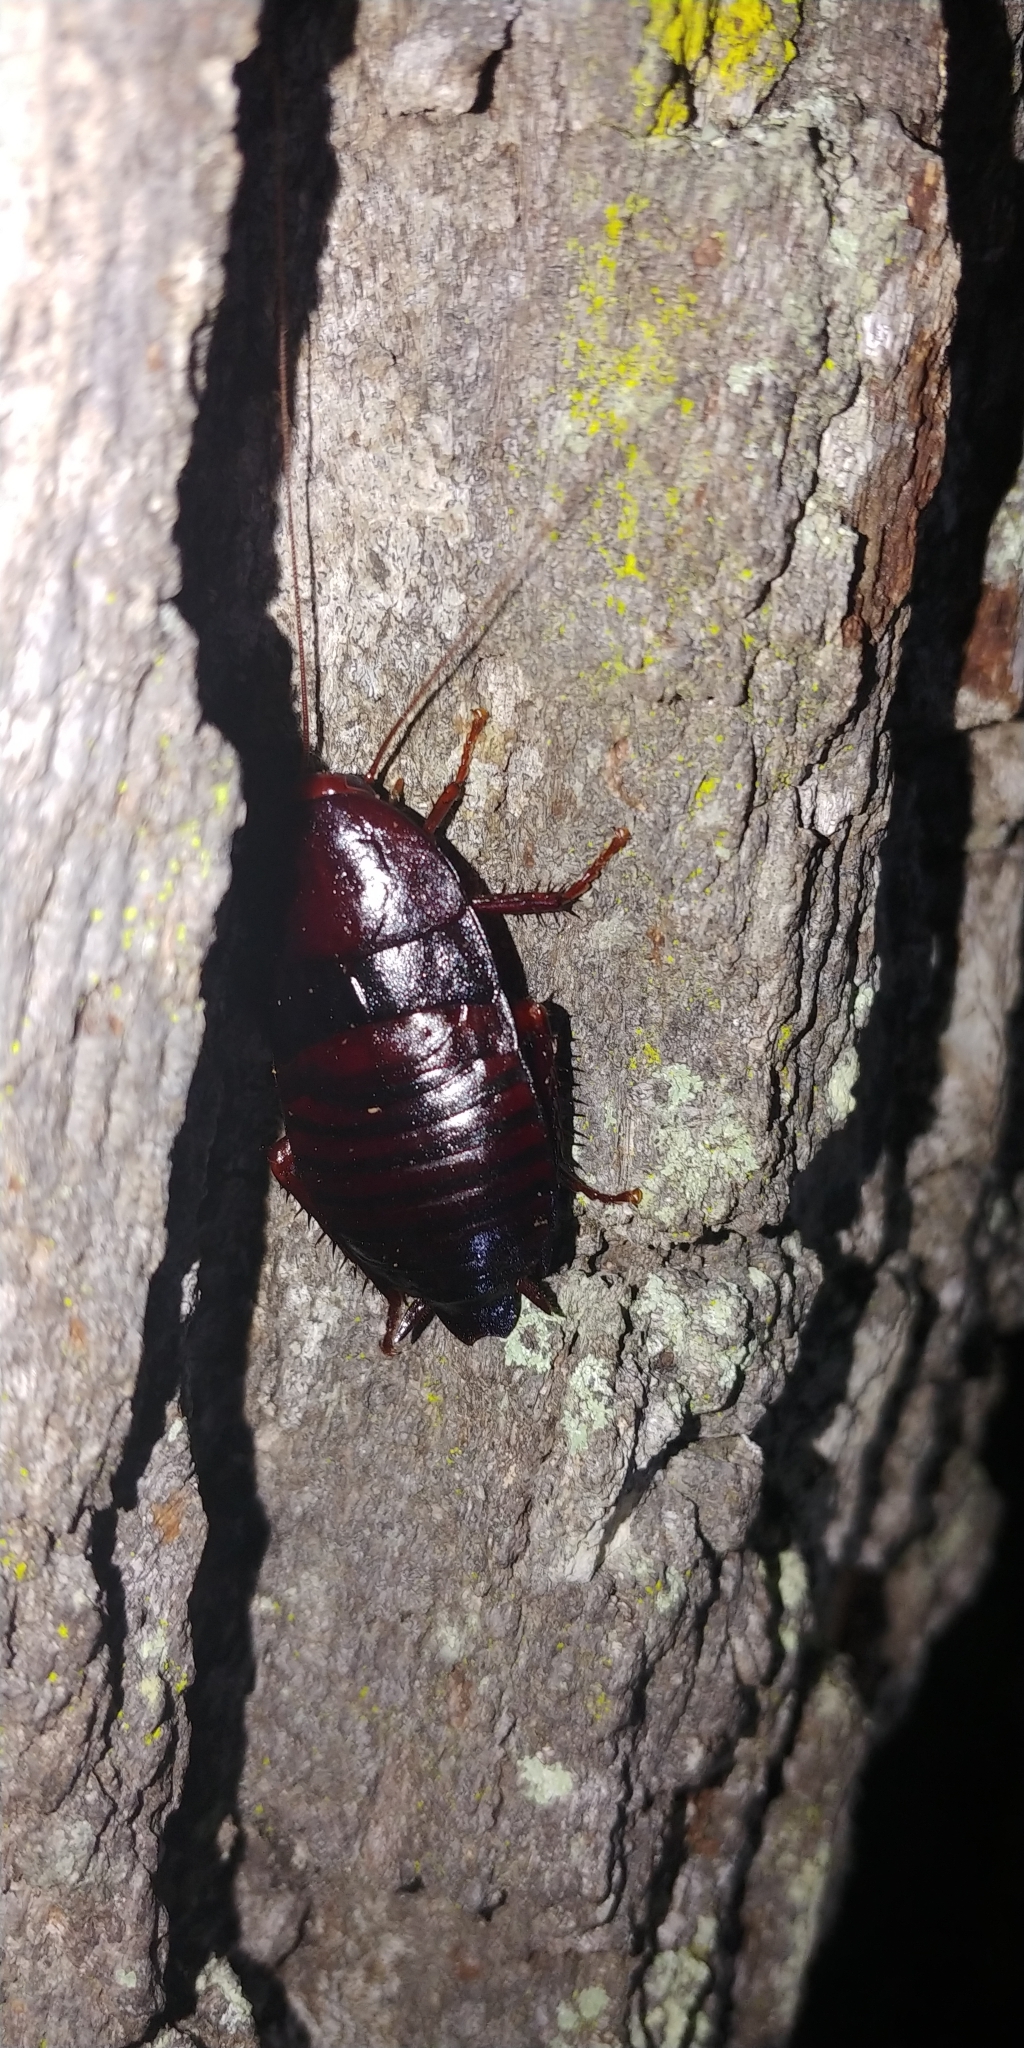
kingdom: Animalia
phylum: Arthropoda
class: Insecta
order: Blattodea
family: Blattidae
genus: Eurycotis
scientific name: Eurycotis floridana
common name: Florida cockroach
